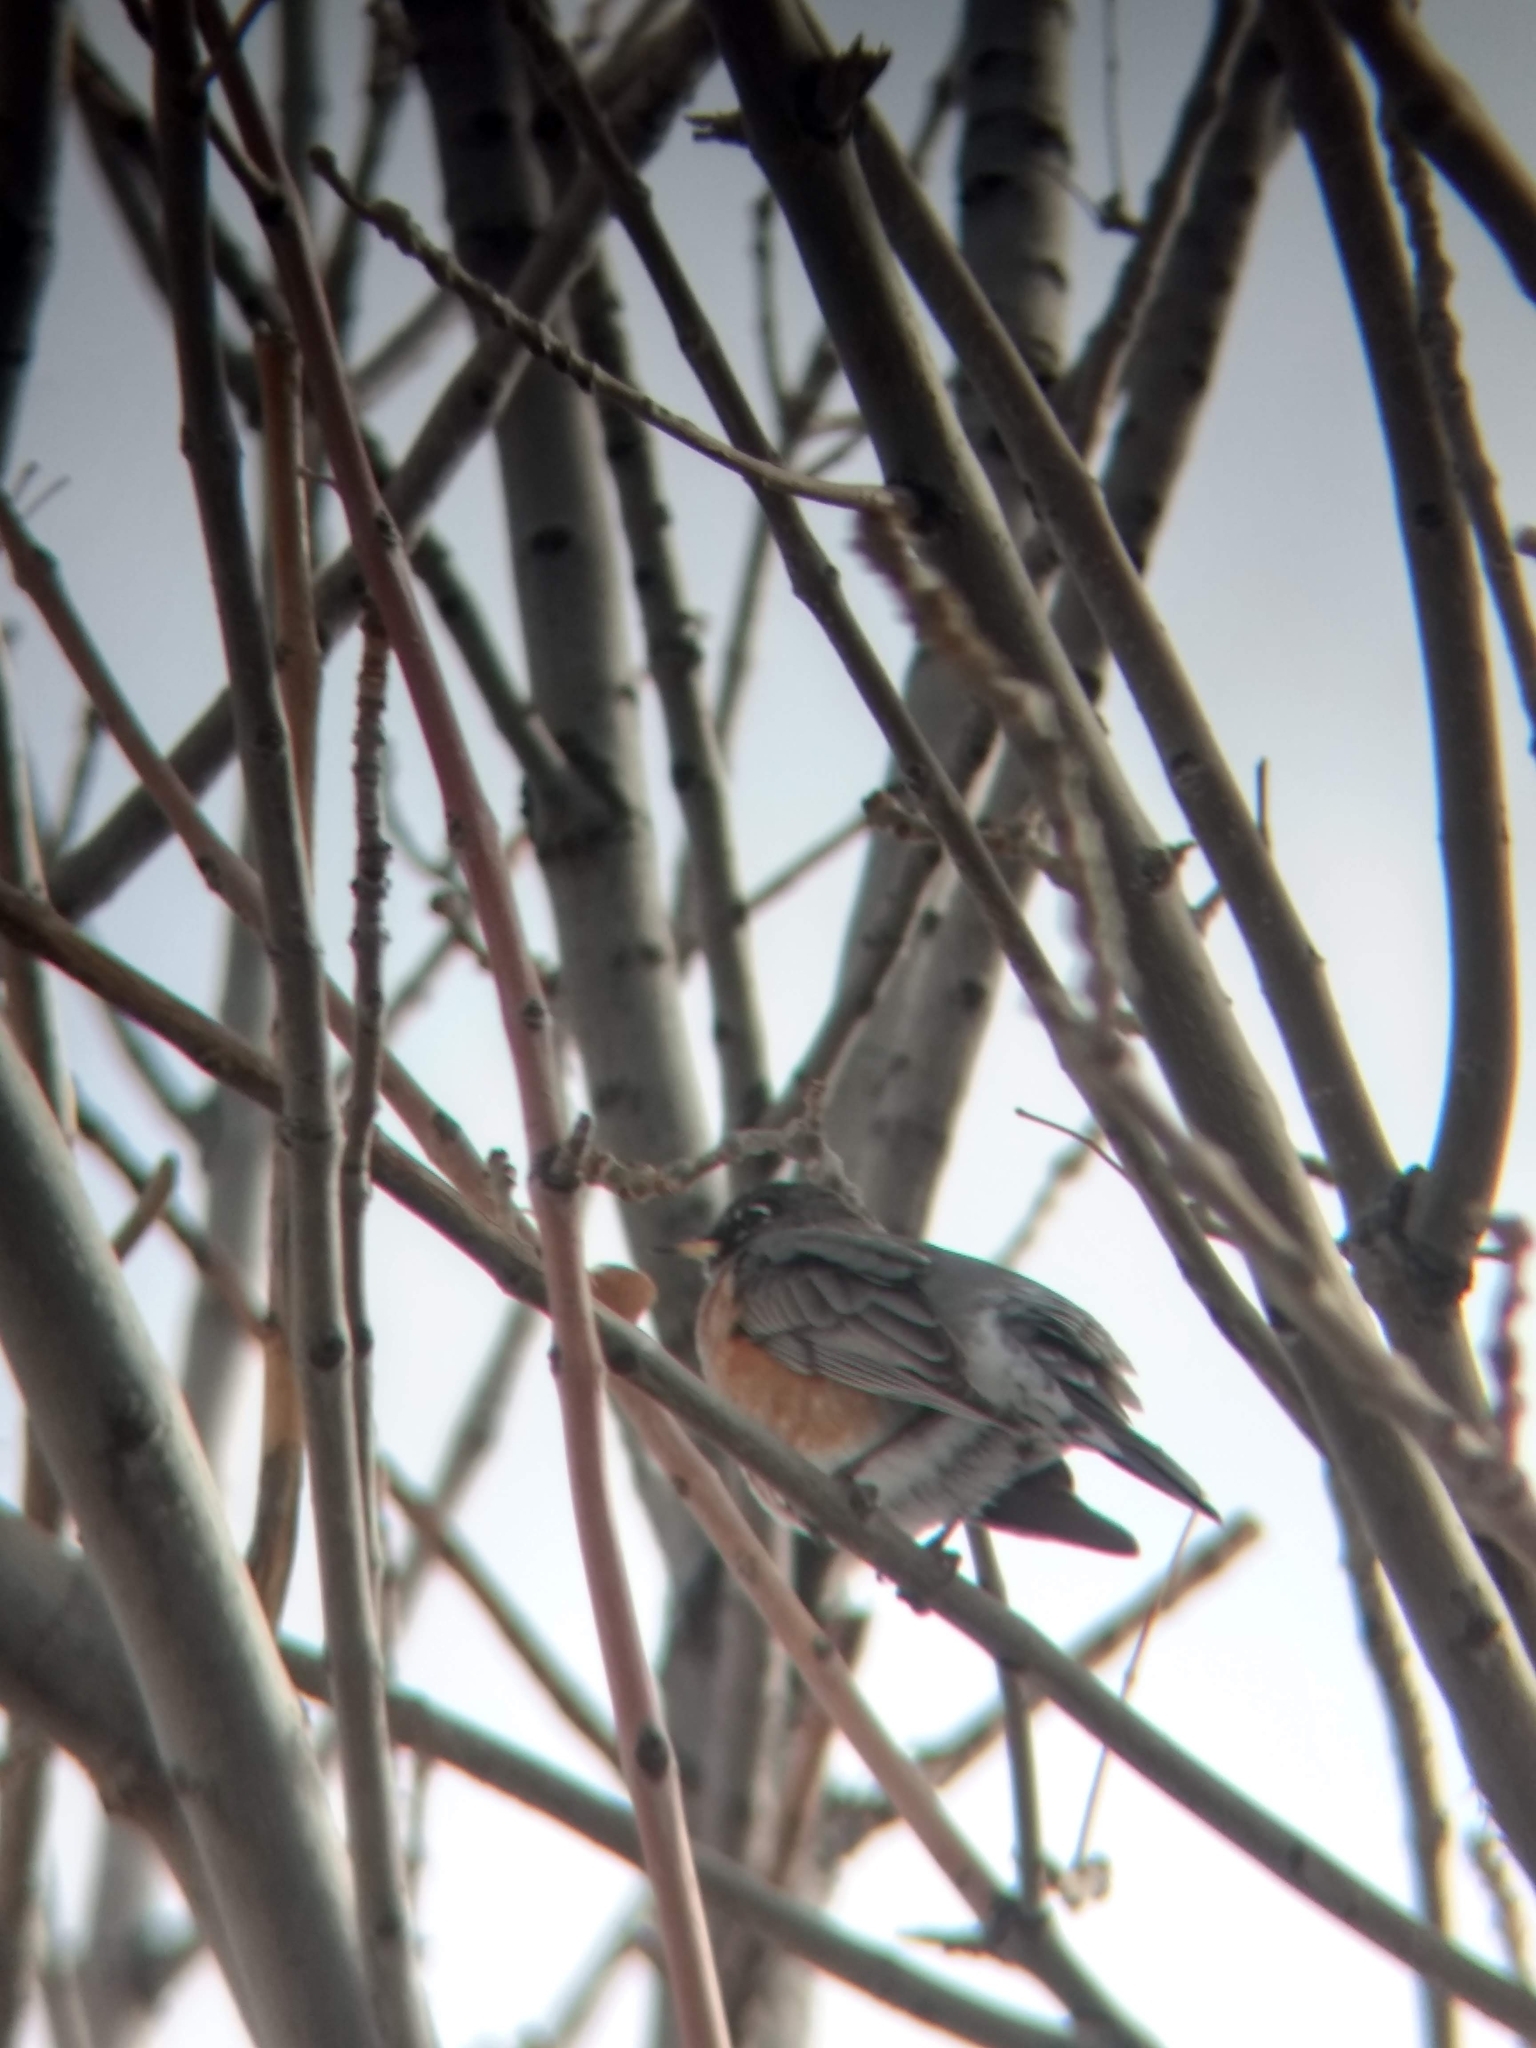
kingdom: Animalia
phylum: Chordata
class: Aves
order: Passeriformes
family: Turdidae
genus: Turdus
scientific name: Turdus migratorius
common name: American robin
